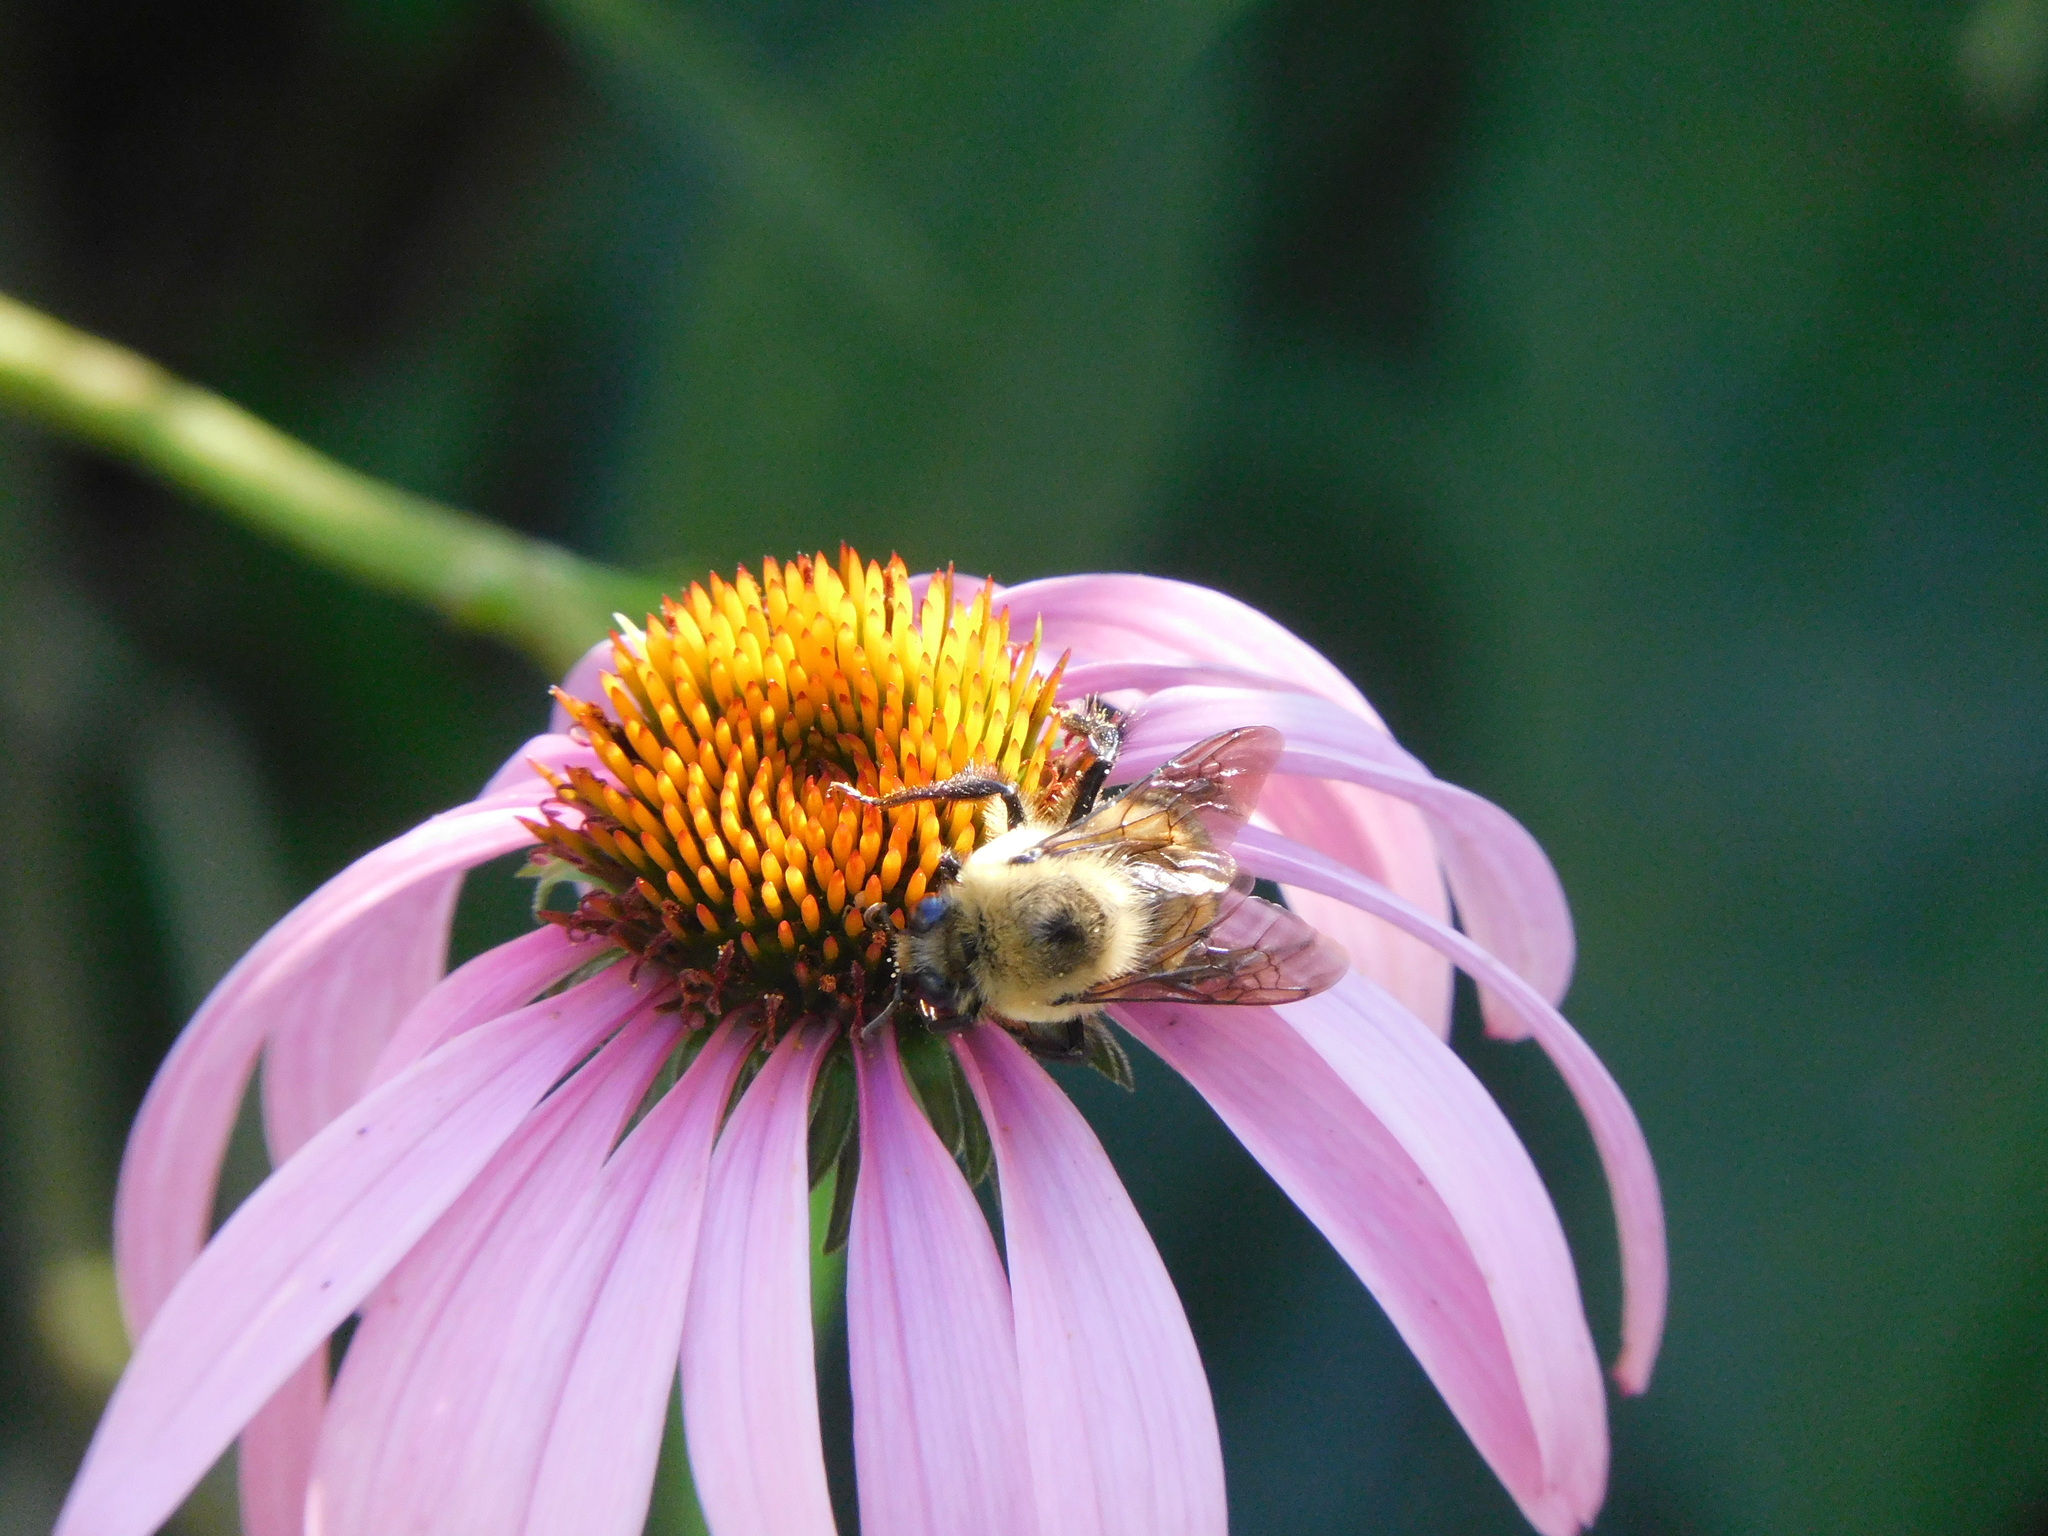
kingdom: Animalia
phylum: Arthropoda
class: Insecta
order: Hymenoptera
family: Apidae
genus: Bombus
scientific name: Bombus griseocollis
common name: Brown-belted bumble bee
